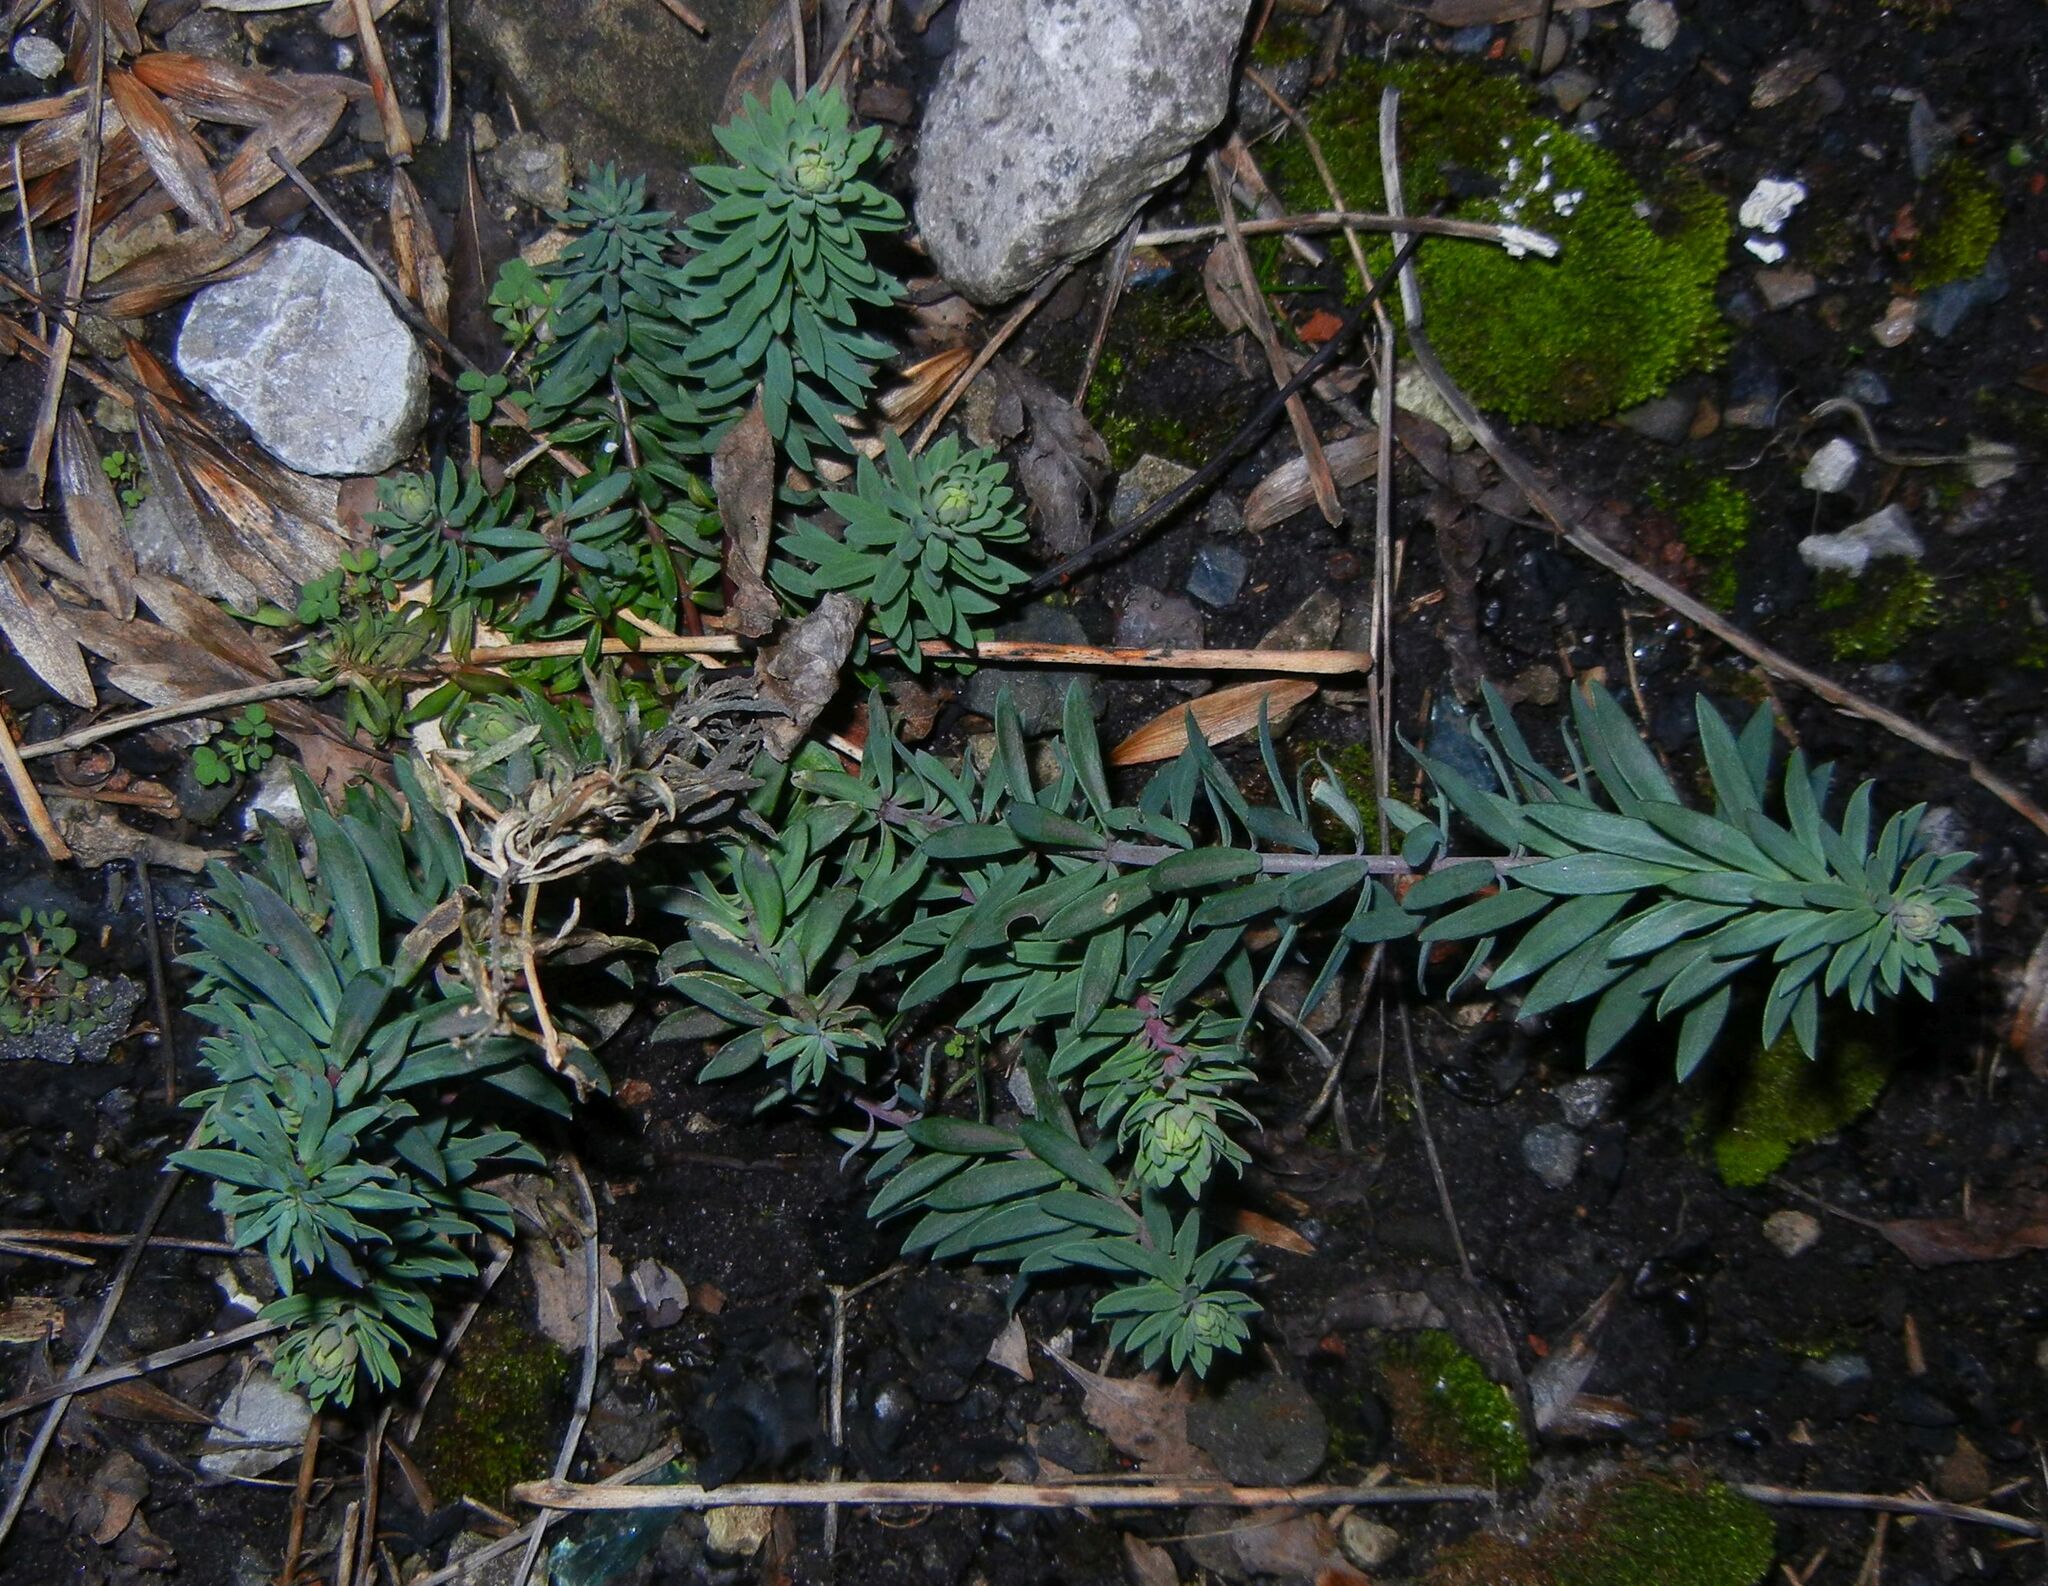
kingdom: Plantae
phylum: Tracheophyta
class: Magnoliopsida
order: Lamiales
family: Plantaginaceae
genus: Linaria
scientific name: Linaria purpurea
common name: Purple toadflax
